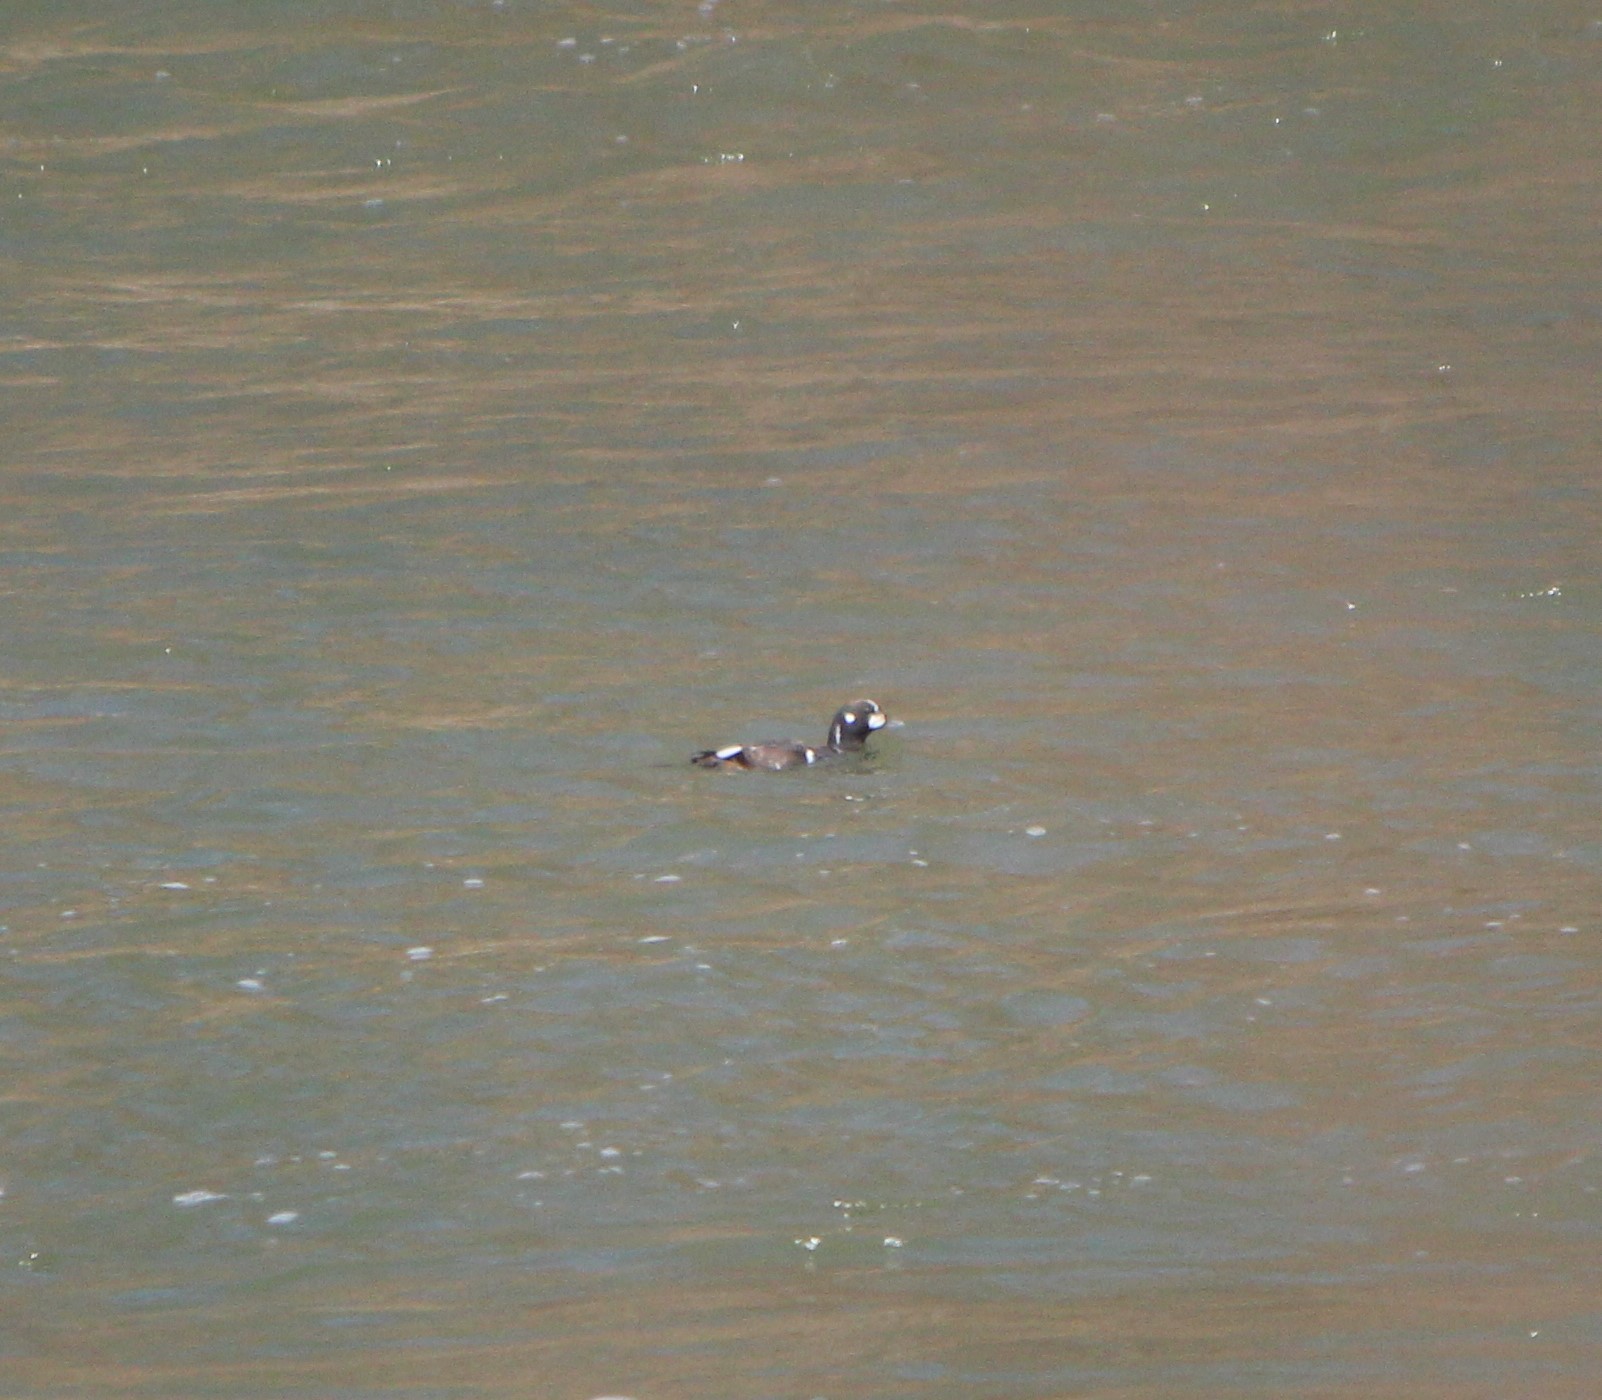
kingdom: Animalia
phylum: Chordata
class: Aves
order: Anseriformes
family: Anatidae
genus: Histrionicus
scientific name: Histrionicus histrionicus
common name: Harlequin duck
